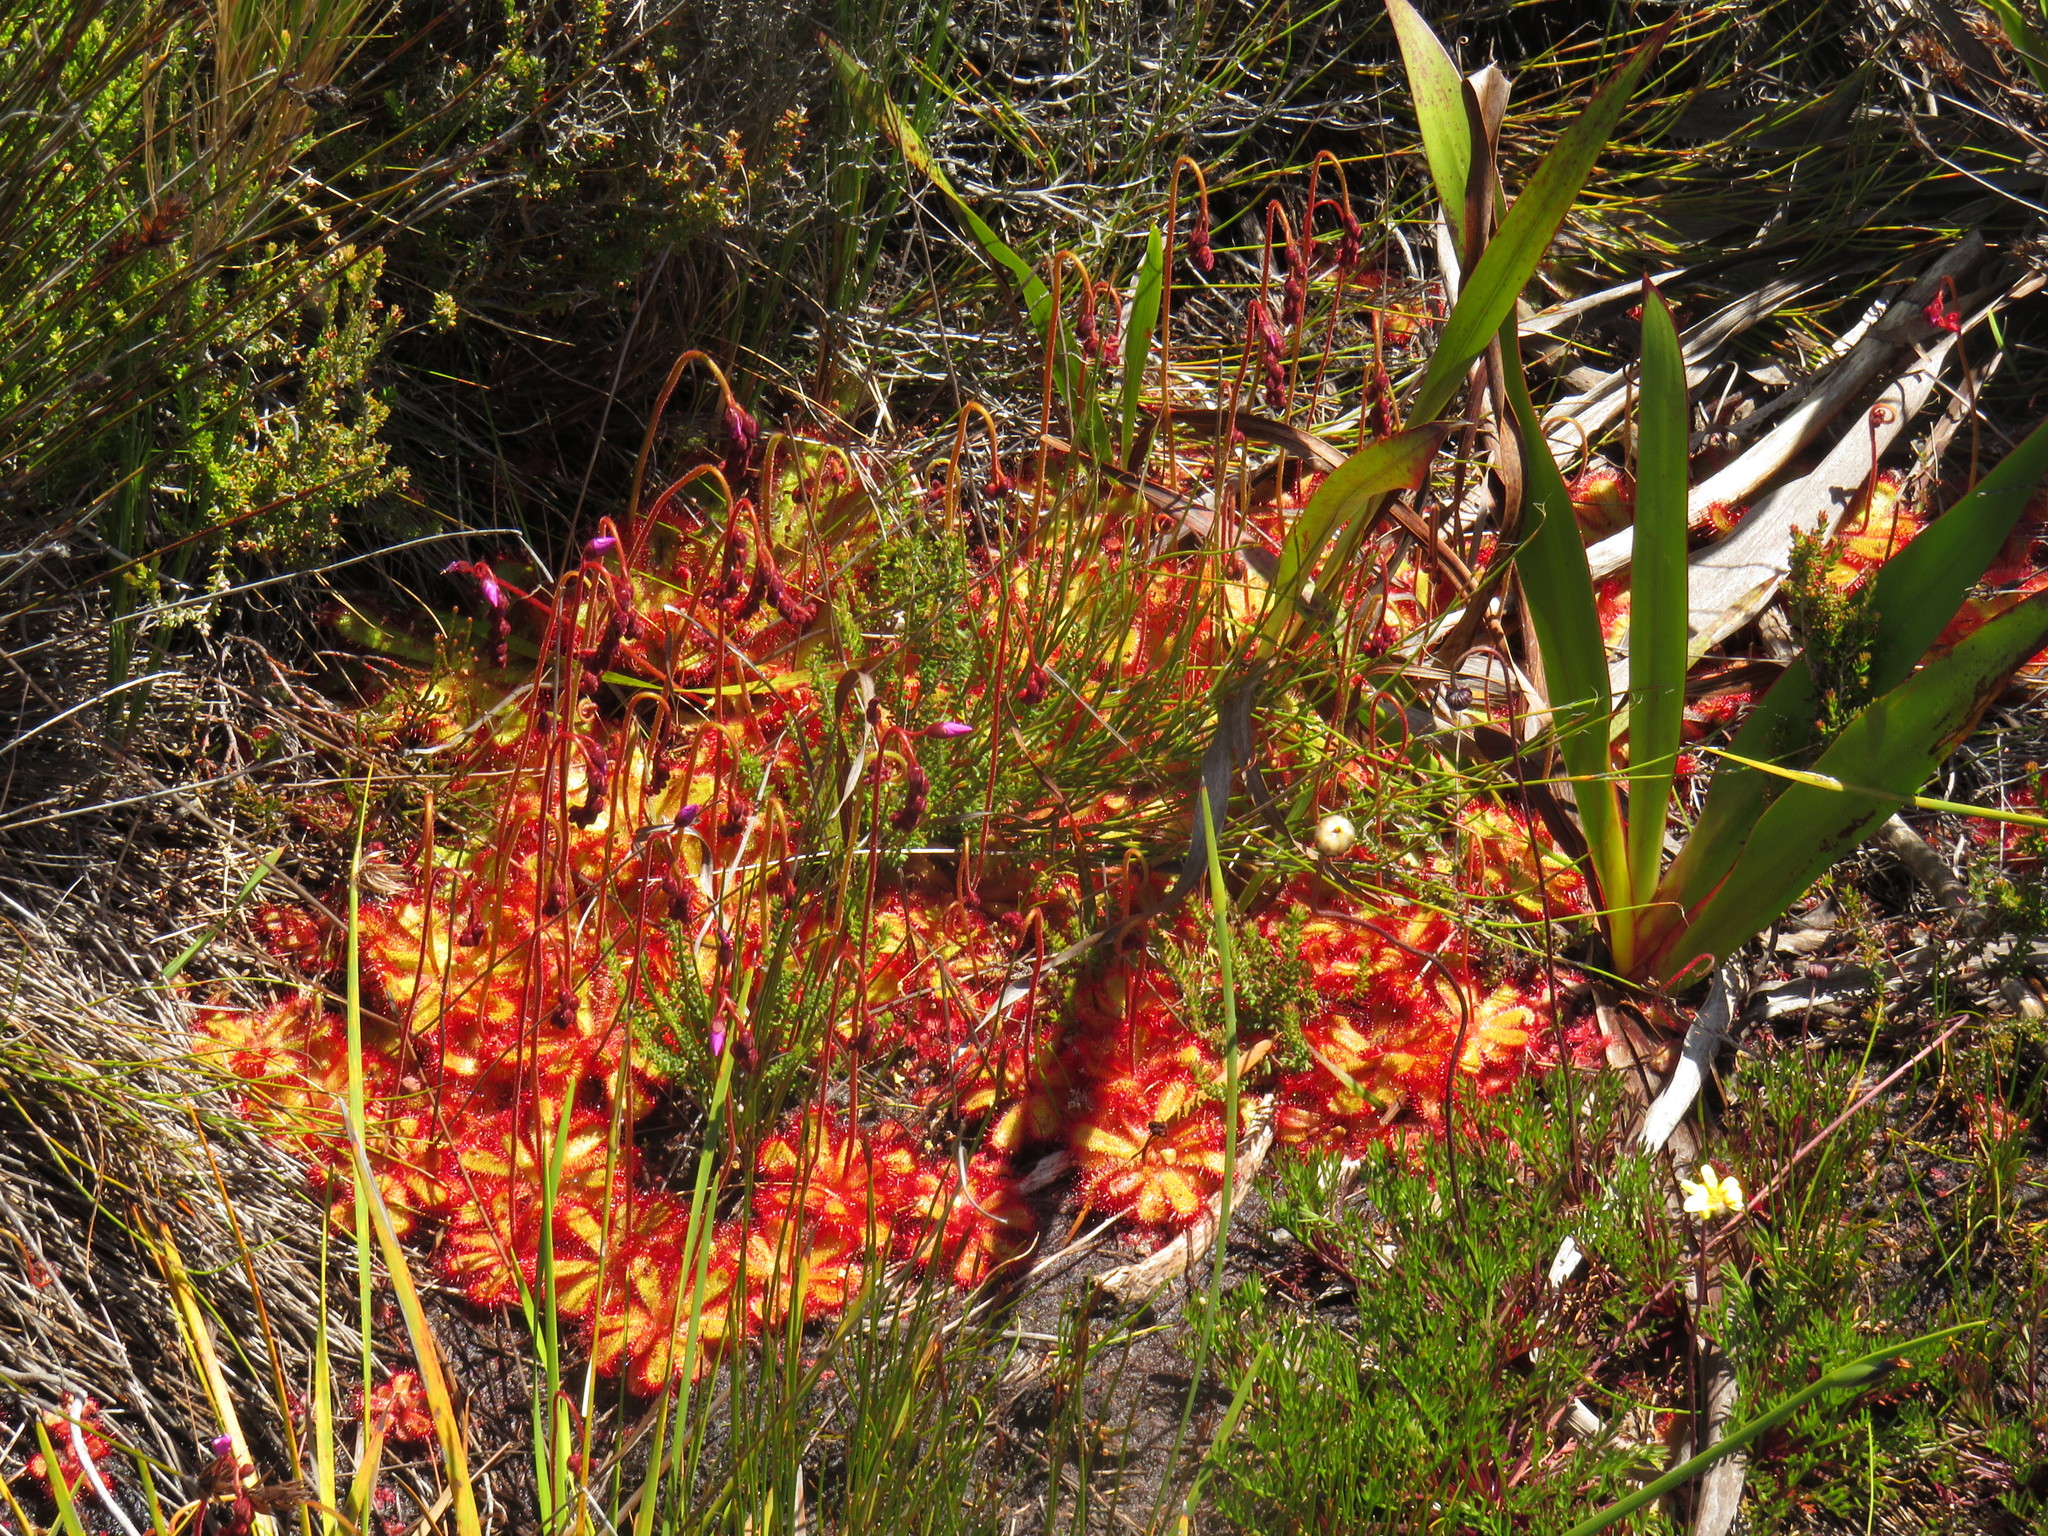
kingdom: Plantae
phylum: Tracheophyta
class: Magnoliopsida
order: Caryophyllales
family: Droseraceae
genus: Drosera
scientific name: Drosera cuneifolia
